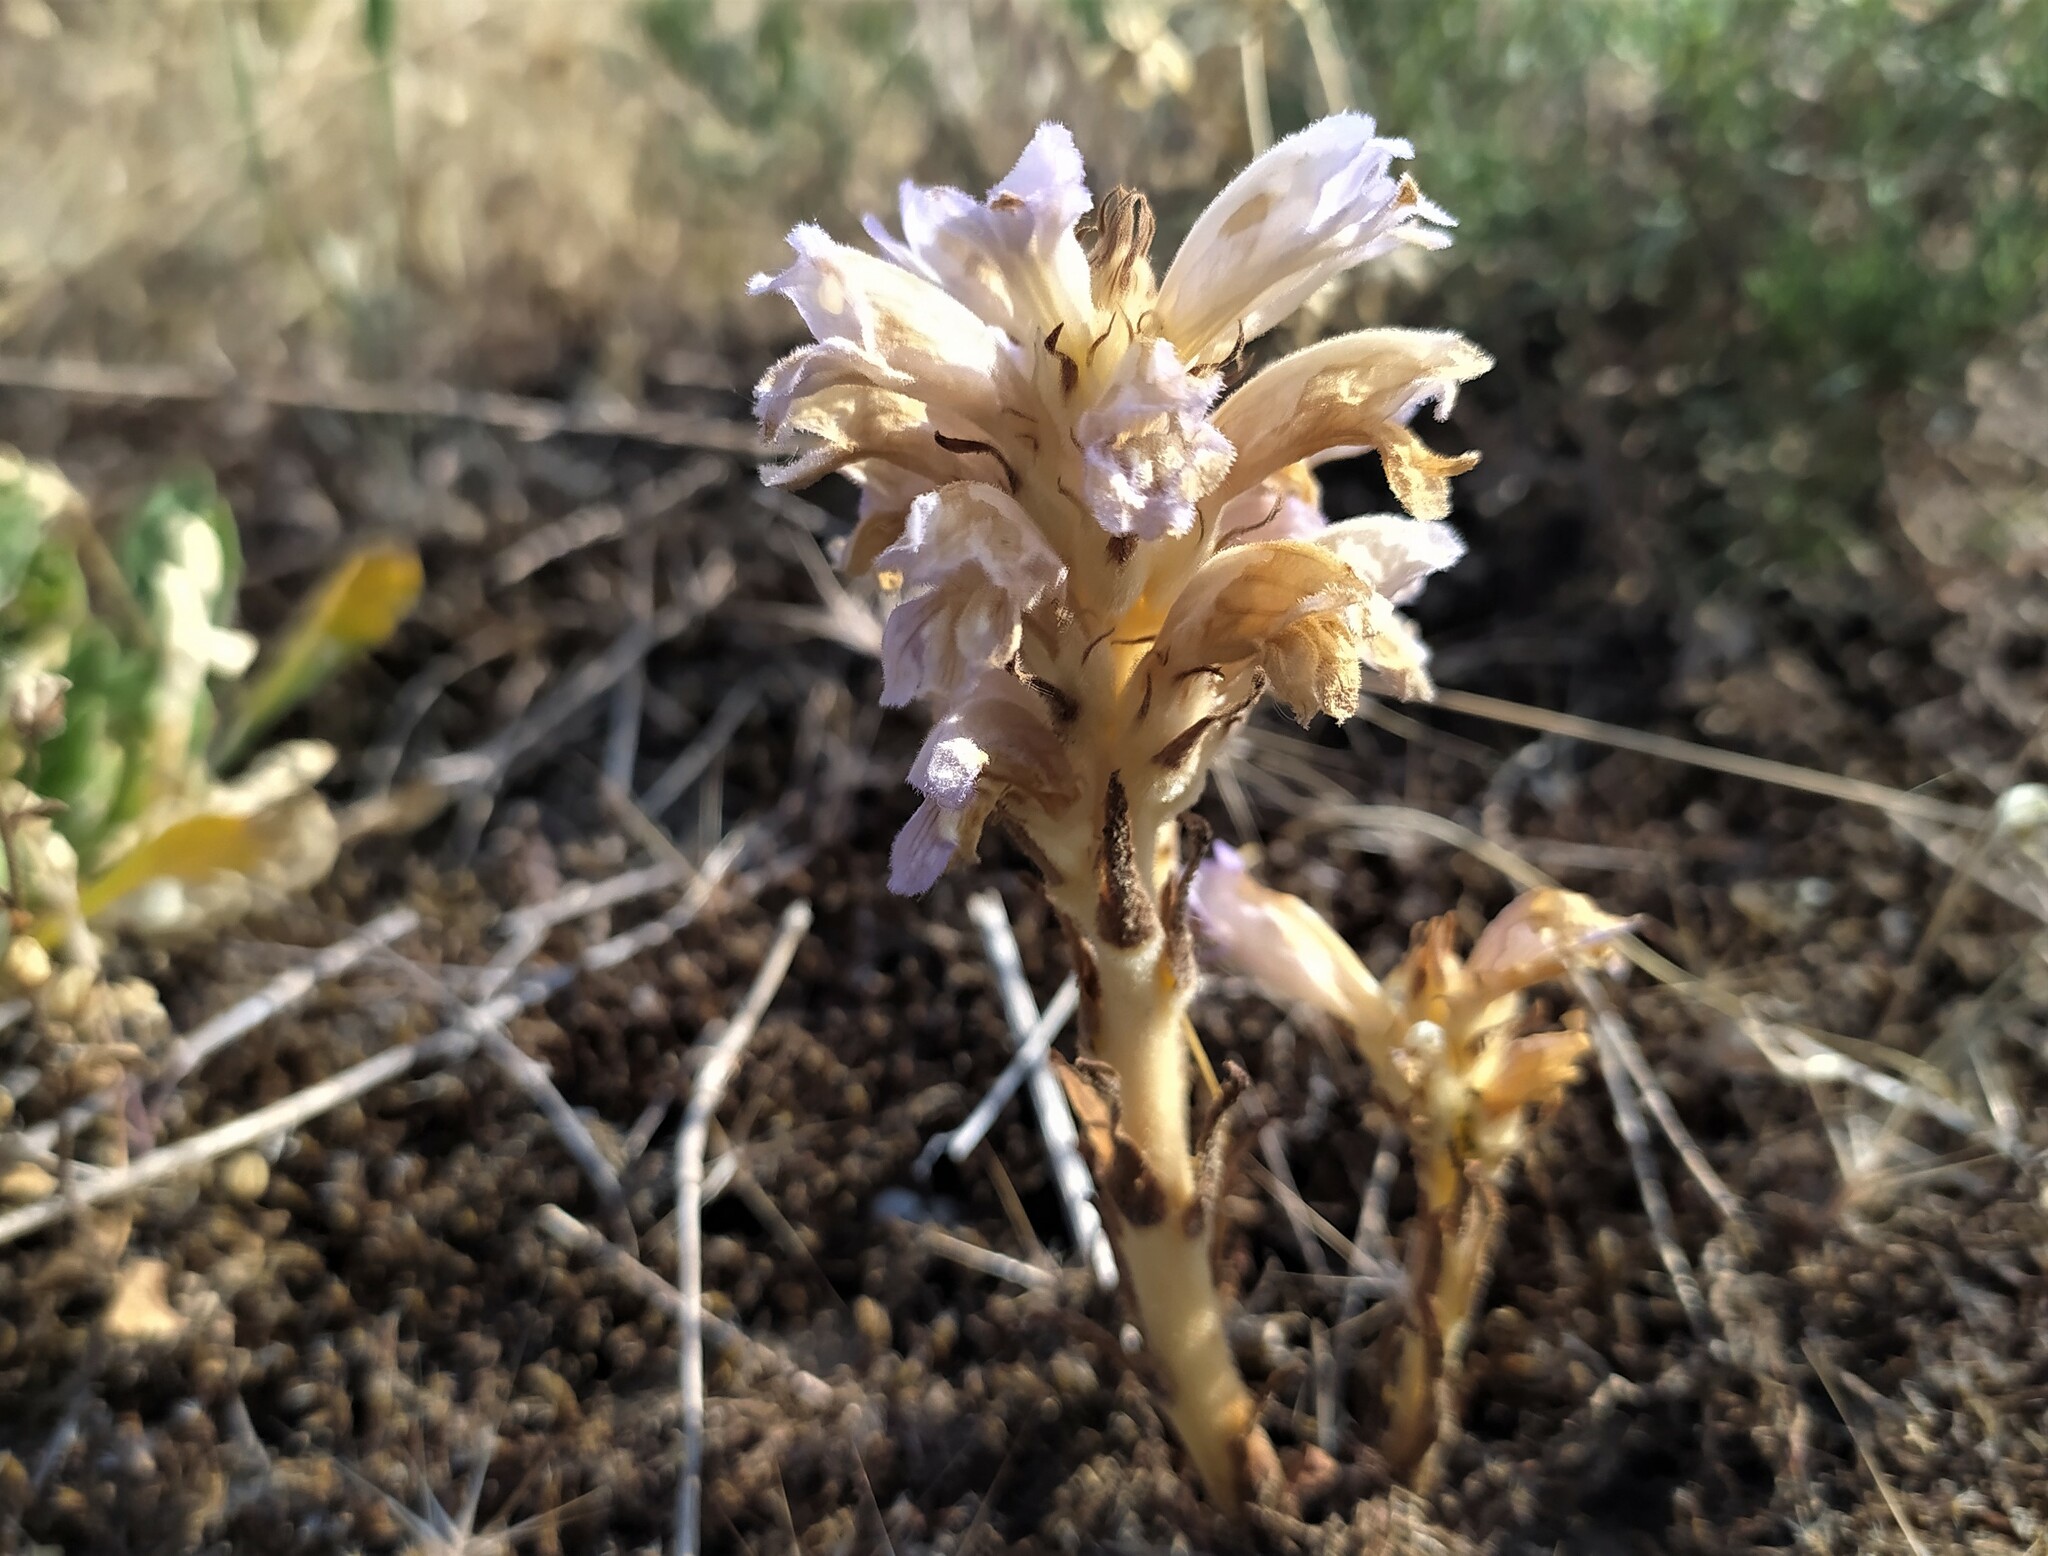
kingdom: Plantae
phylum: Tracheophyta
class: Magnoliopsida
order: Lamiales
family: Orobanchaceae
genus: Phelipanche
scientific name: Phelipanche arenaria
